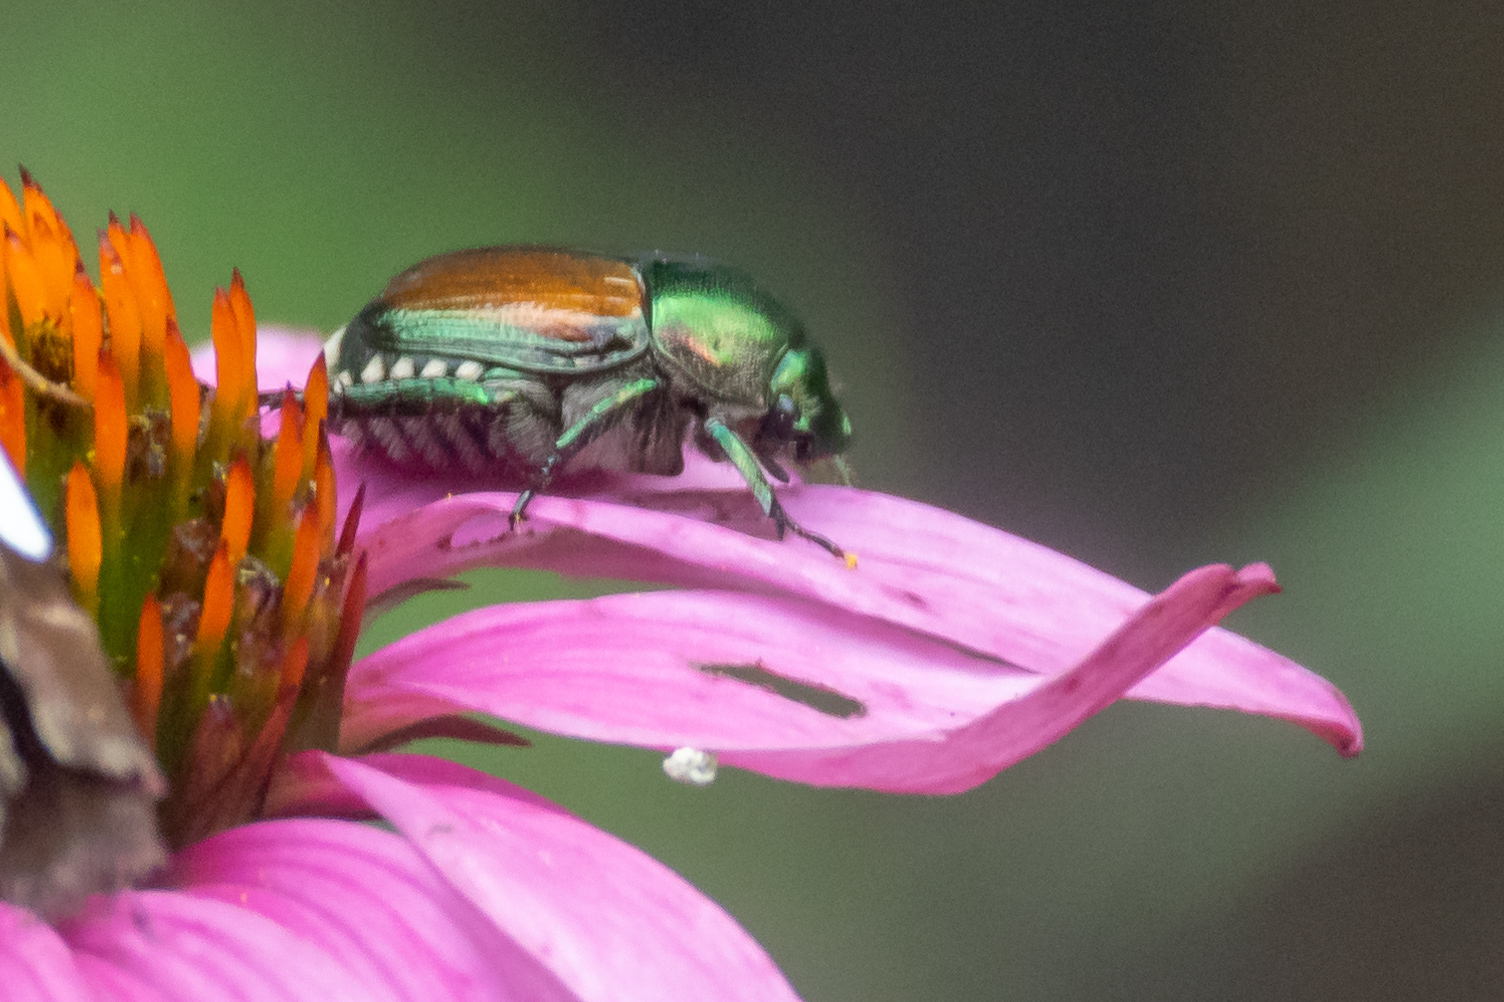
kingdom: Animalia
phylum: Arthropoda
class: Insecta
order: Coleoptera
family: Scarabaeidae
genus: Popillia
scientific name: Popillia japonica
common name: Japanese beetle
